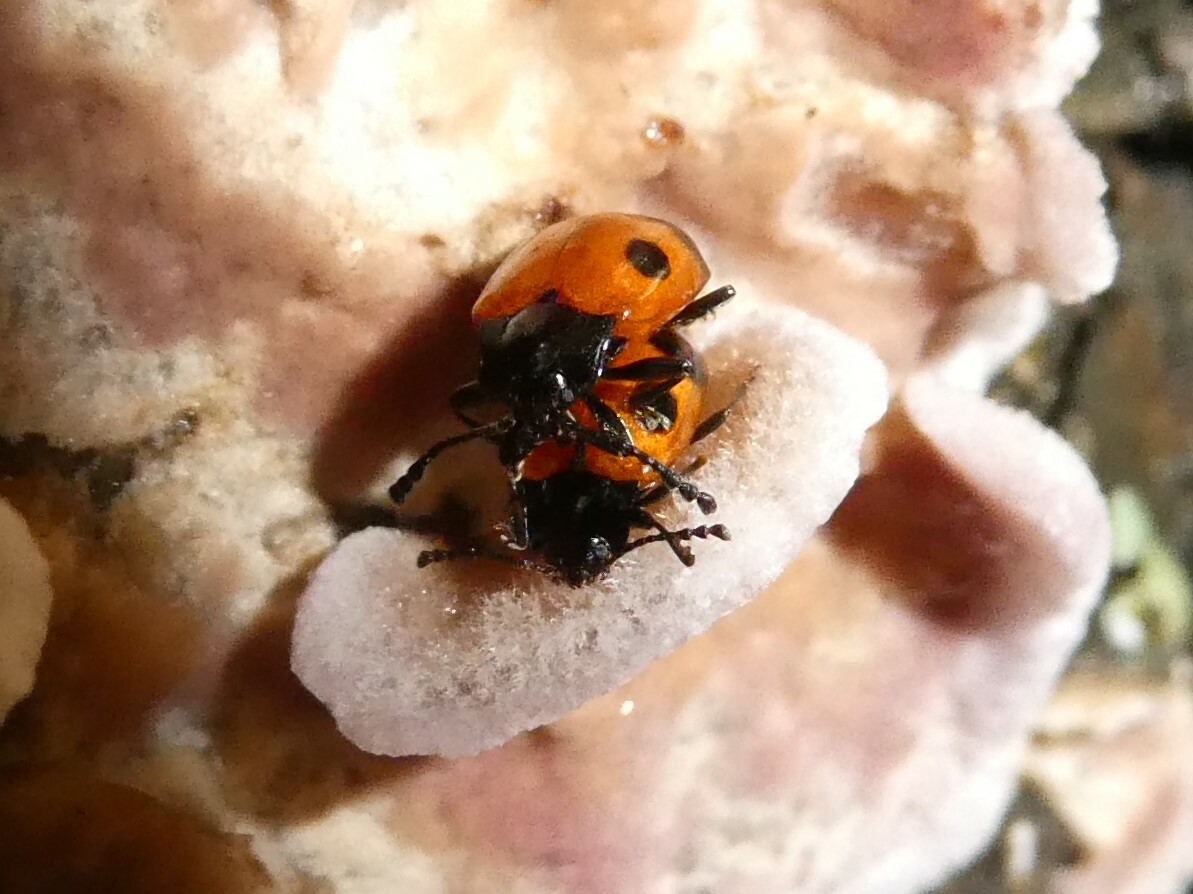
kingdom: Animalia
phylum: Arthropoda
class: Insecta
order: Coleoptera
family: Endomychidae
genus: Endomychus
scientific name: Endomychus biguttatus
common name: Handsome fungus beetle
